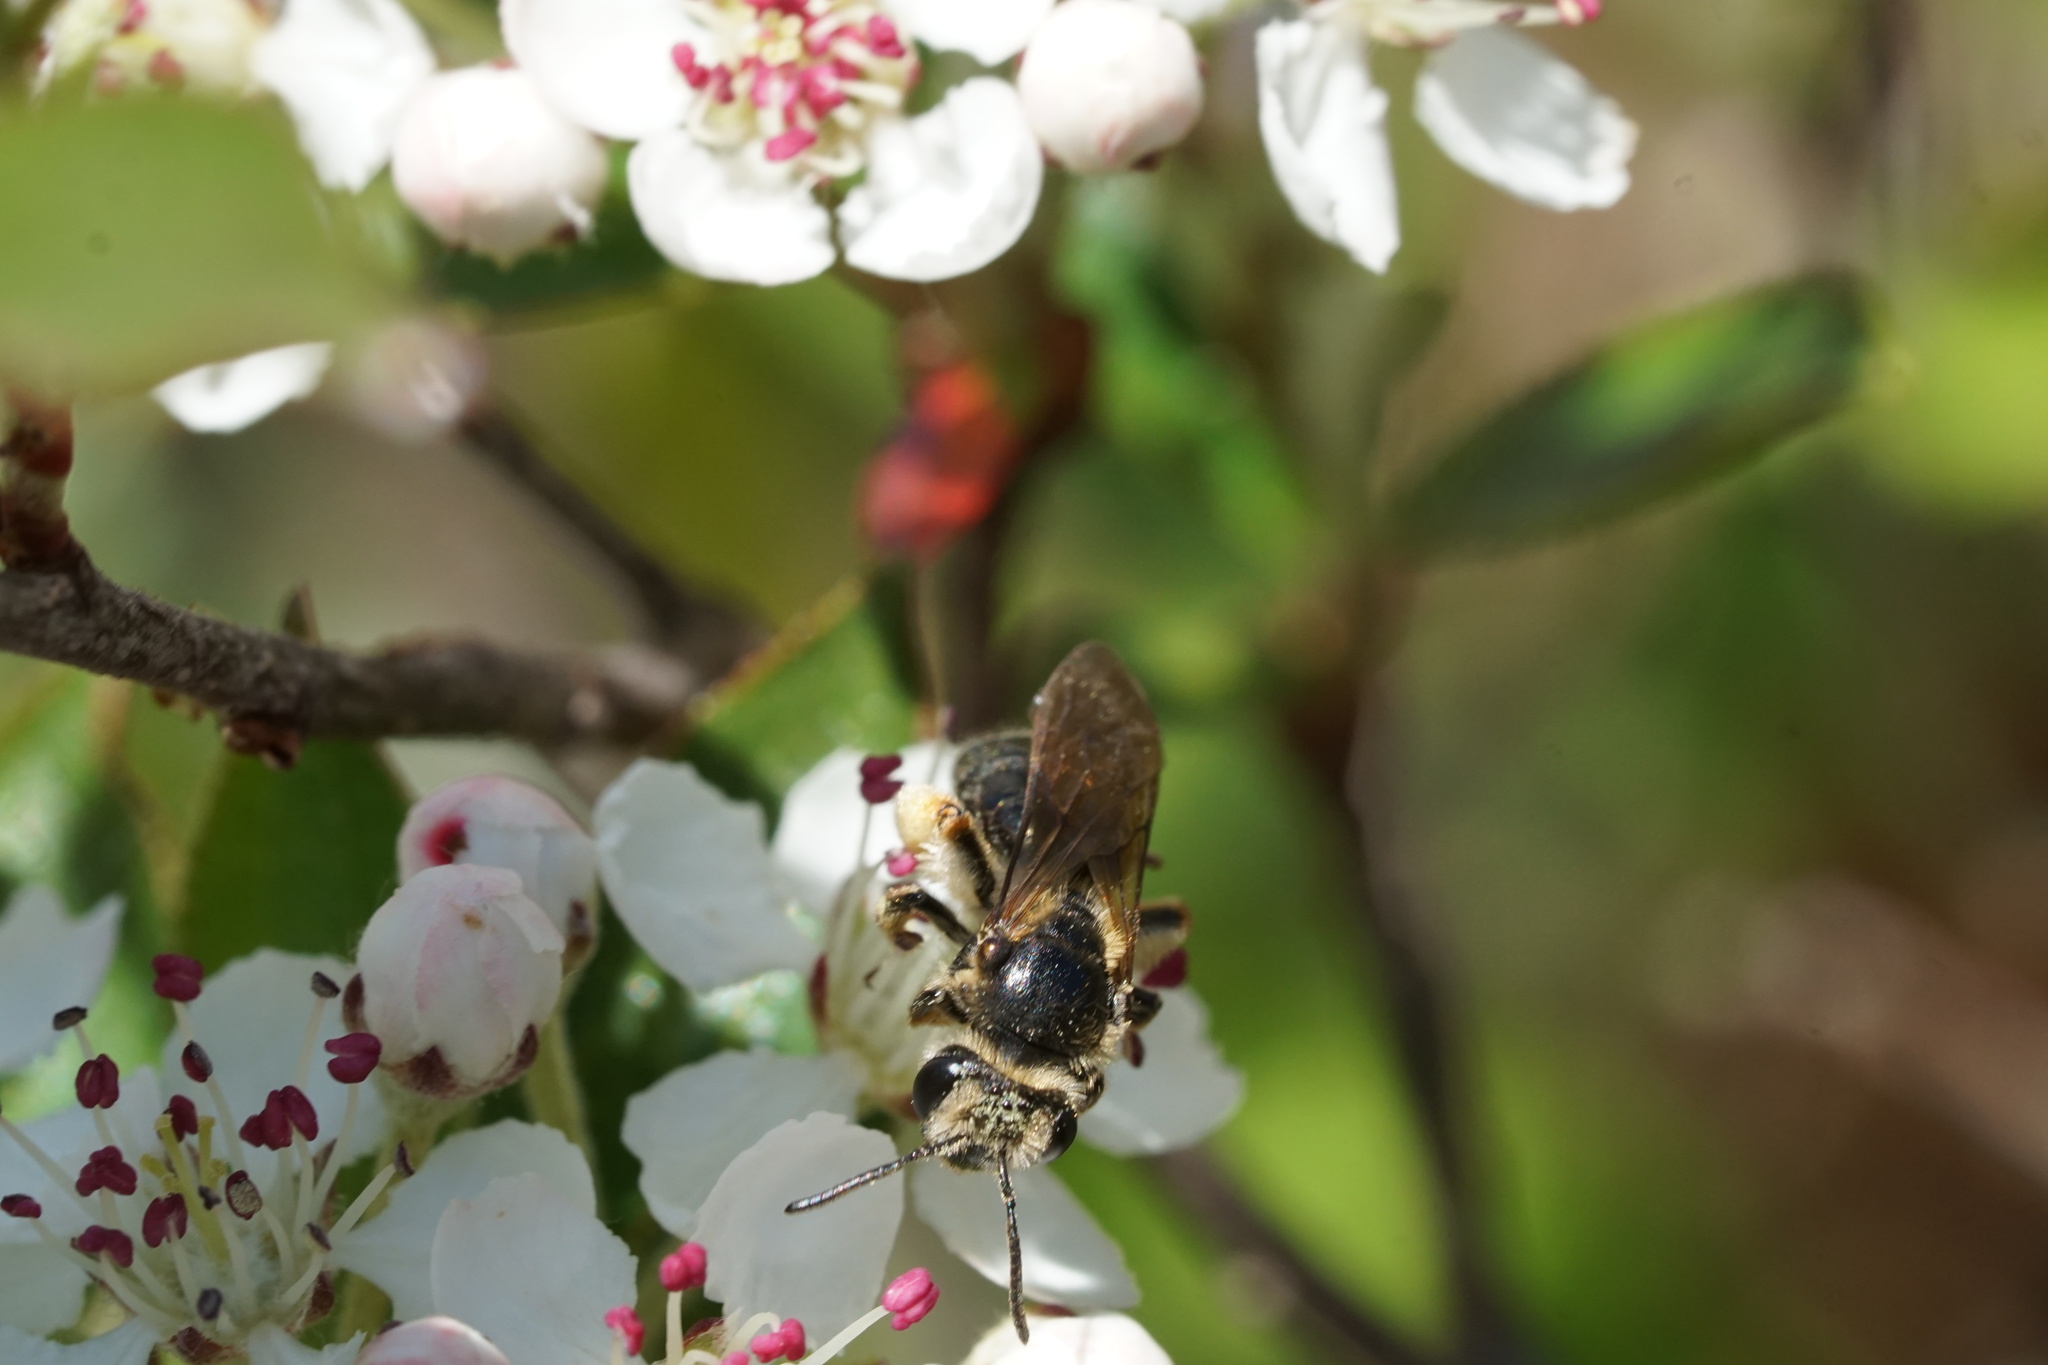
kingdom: Animalia
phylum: Arthropoda
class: Insecta
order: Hymenoptera
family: Andrenidae
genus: Andrena
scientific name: Andrena crataegi
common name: Hawthorn mining bee
